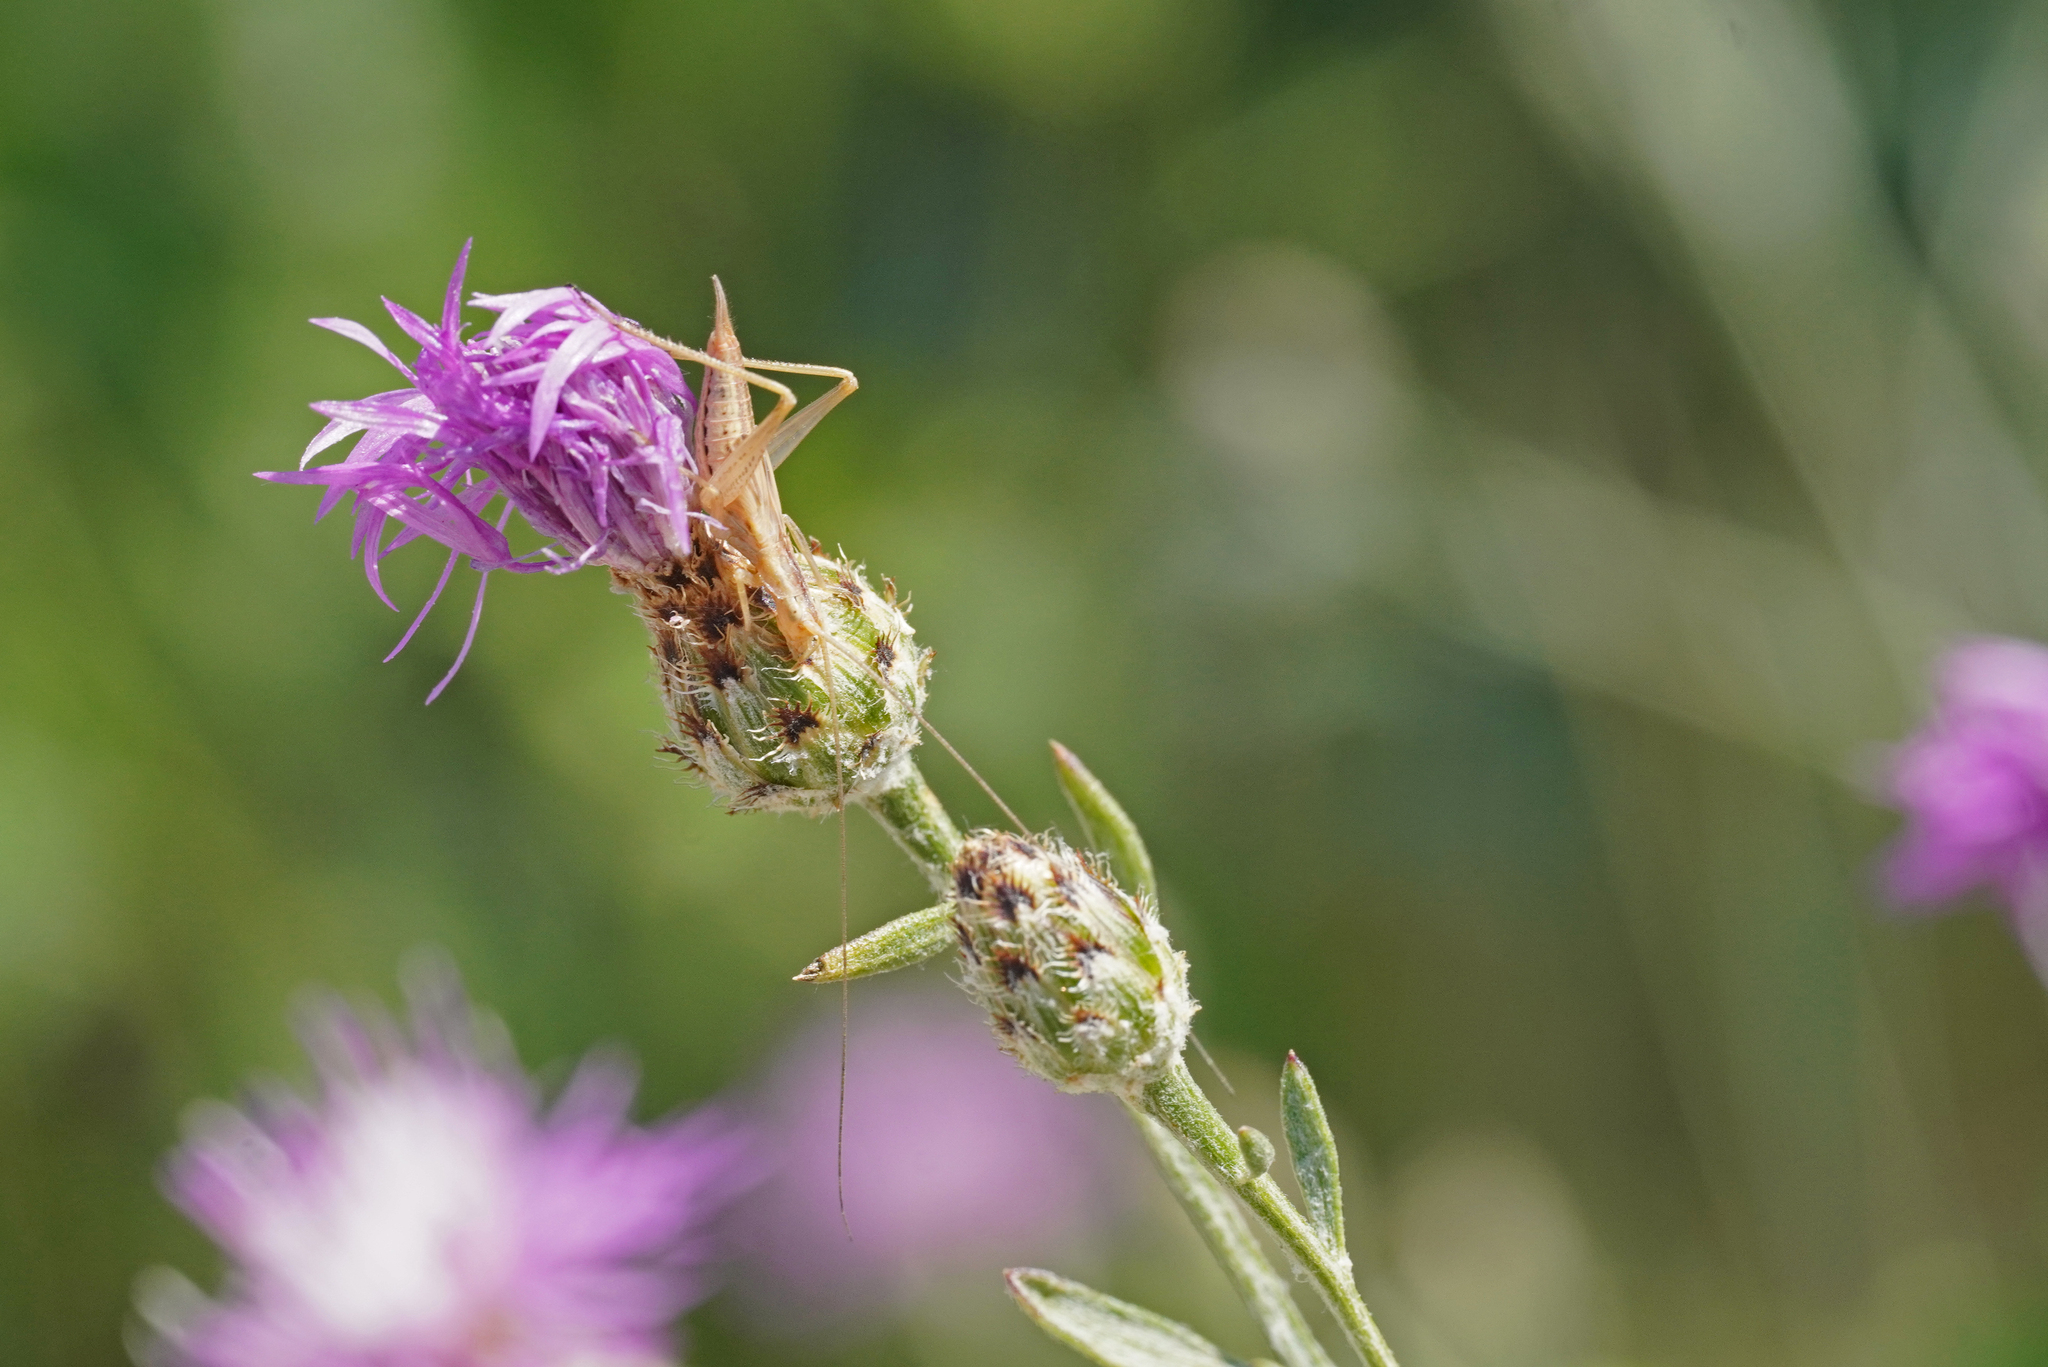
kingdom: Animalia
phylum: Arthropoda
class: Insecta
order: Orthoptera
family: Gryllidae
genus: Oecanthus
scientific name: Oecanthus pellucens
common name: Tree-cricket
